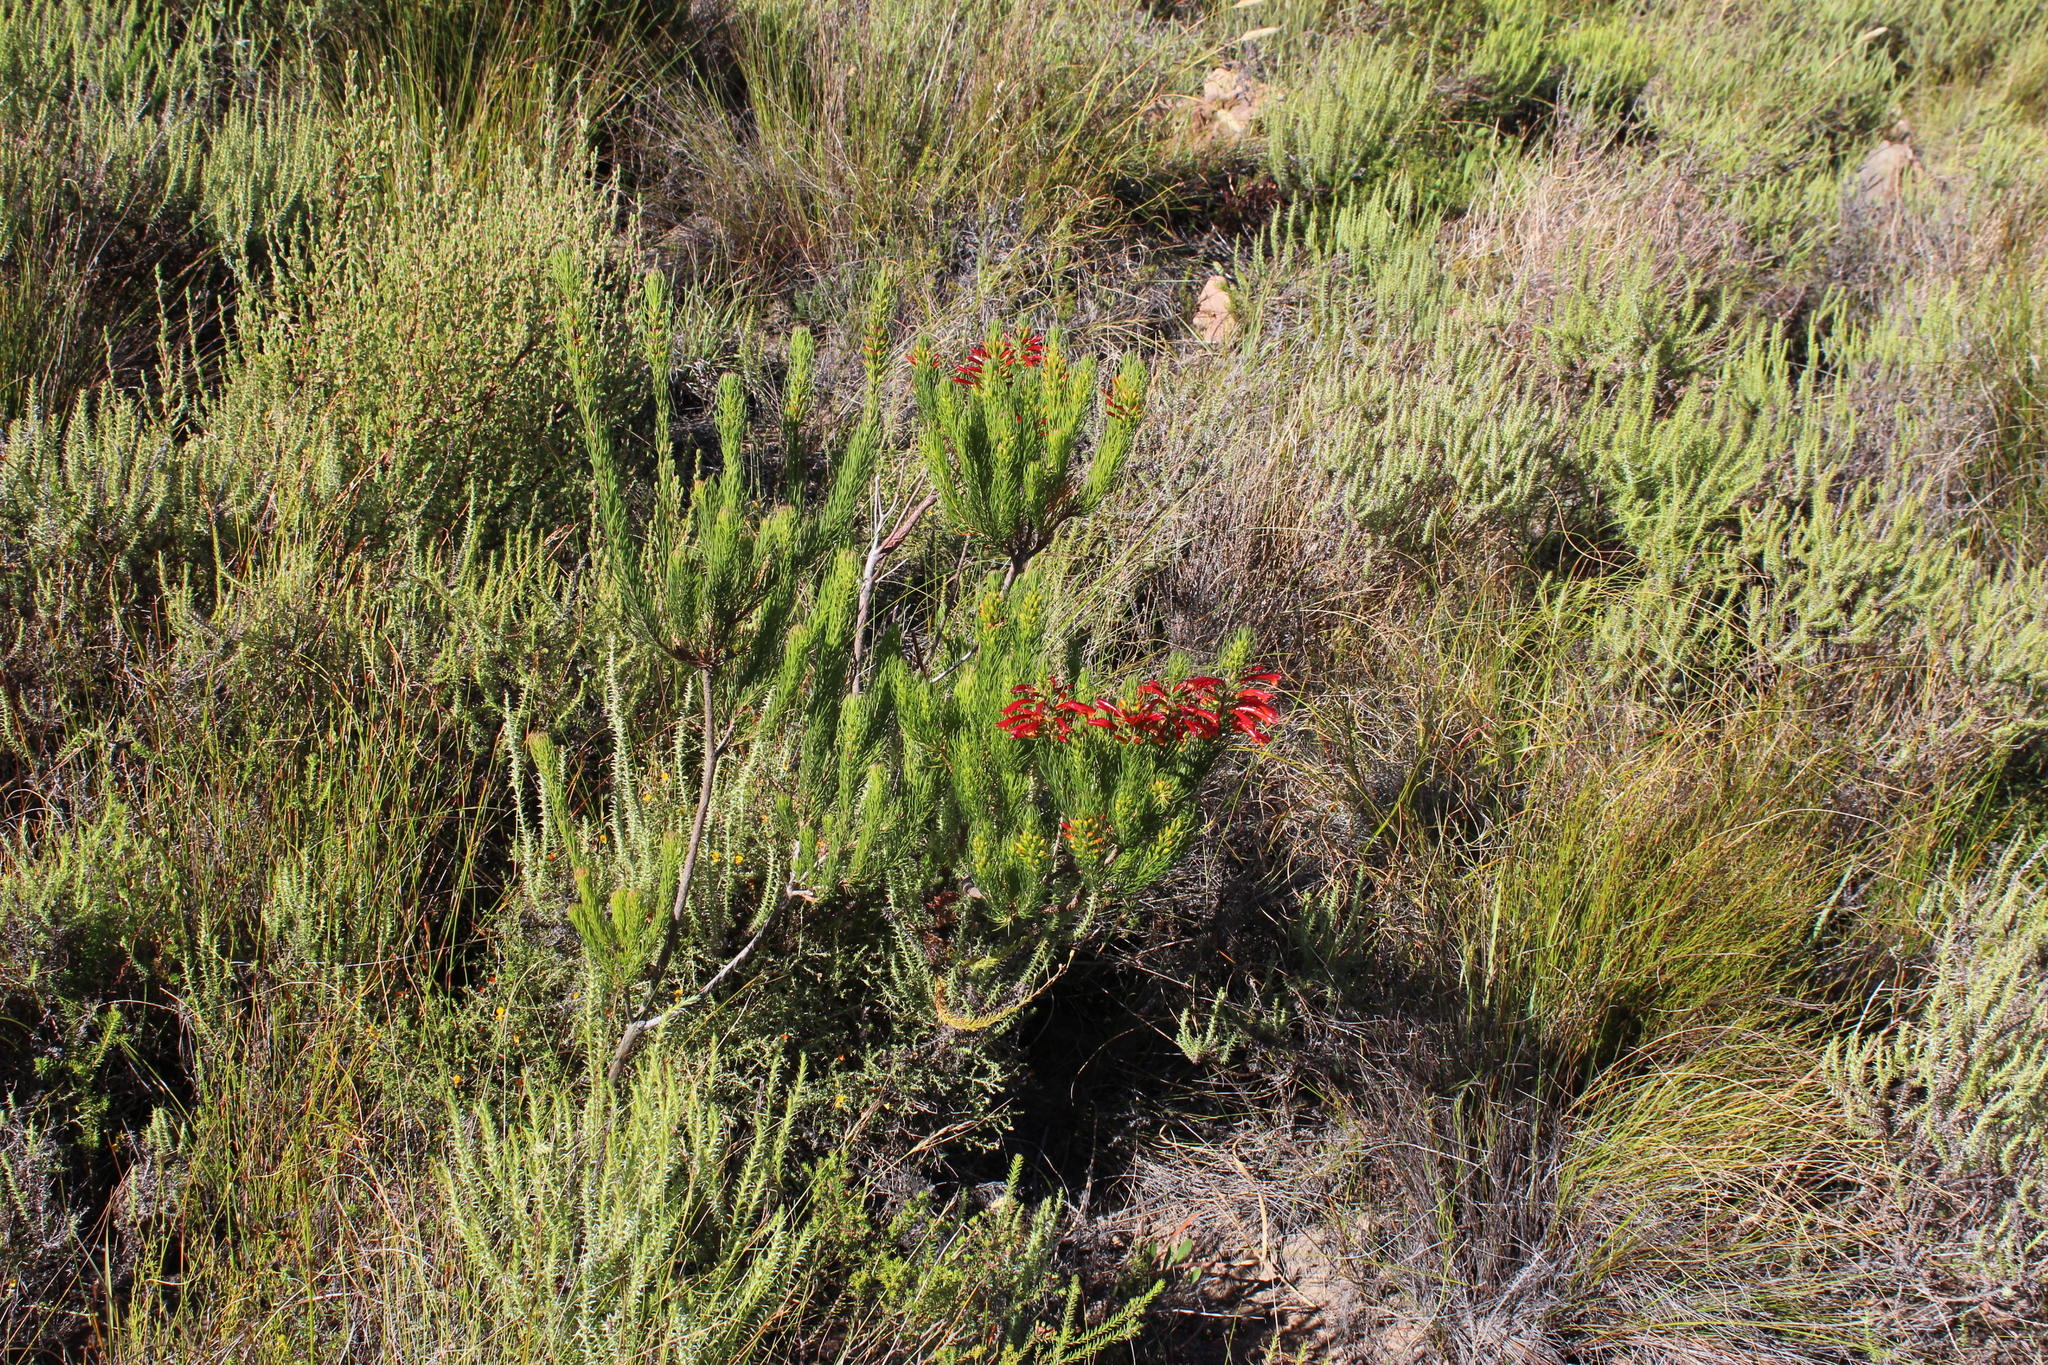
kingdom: Plantae
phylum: Tracheophyta
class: Magnoliopsida
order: Ericales
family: Ericaceae
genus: Erica
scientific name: Erica grandiflora
